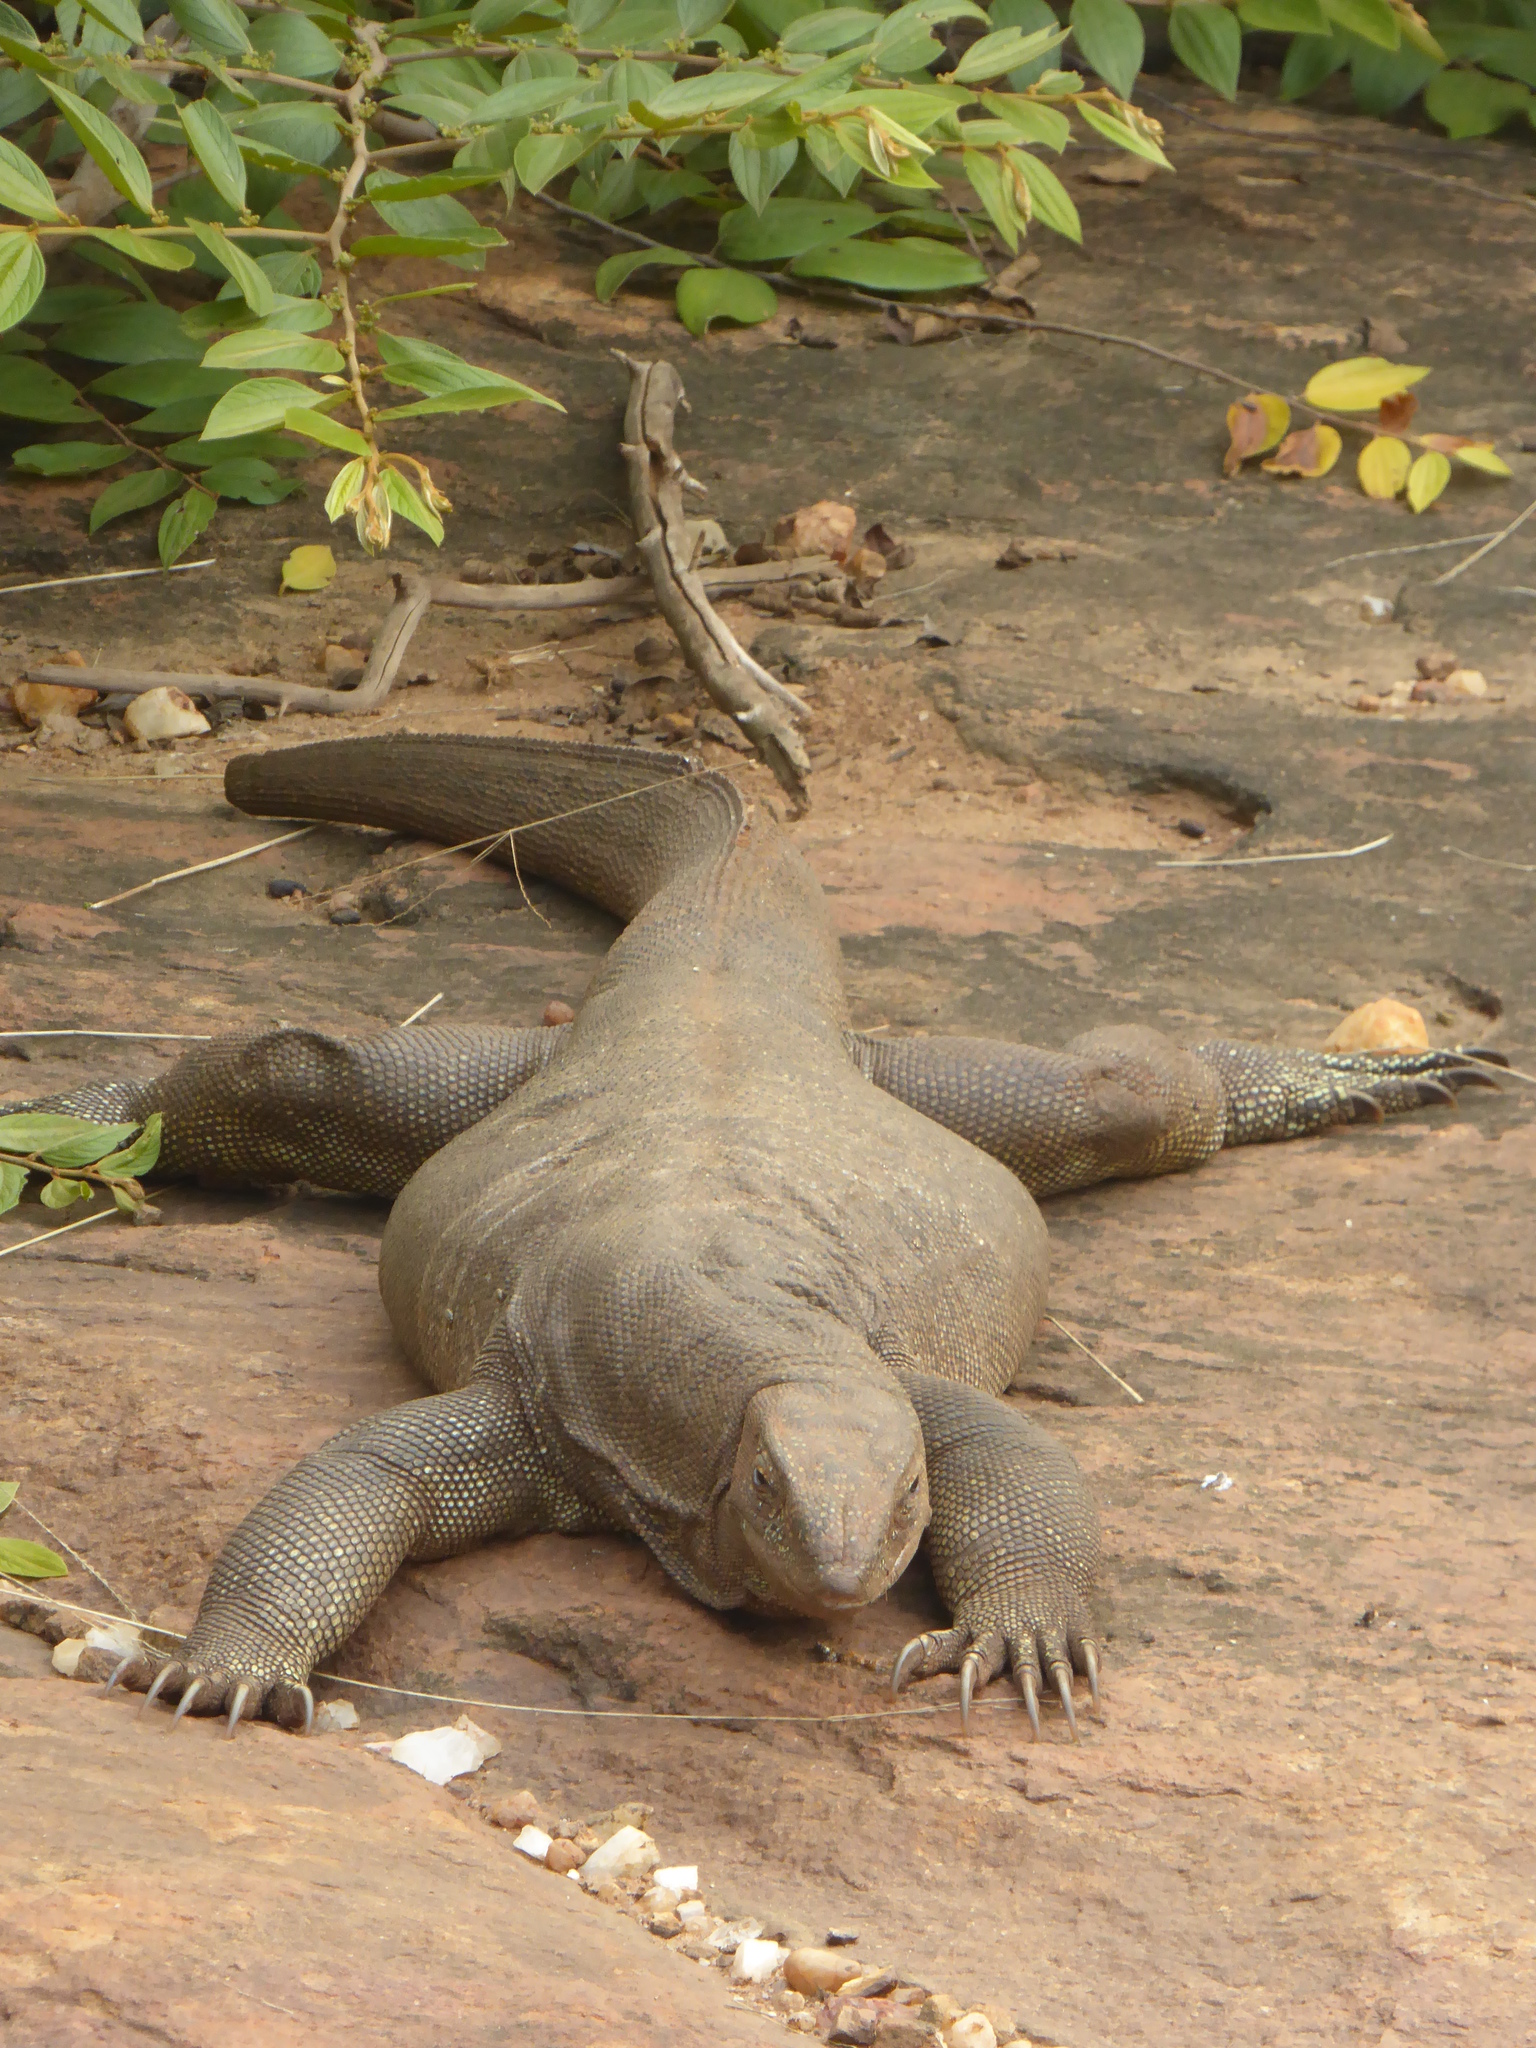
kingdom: Animalia
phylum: Chordata
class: Squamata
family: Varanidae
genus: Varanus
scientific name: Varanus bengalensis
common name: Bengal monitor
